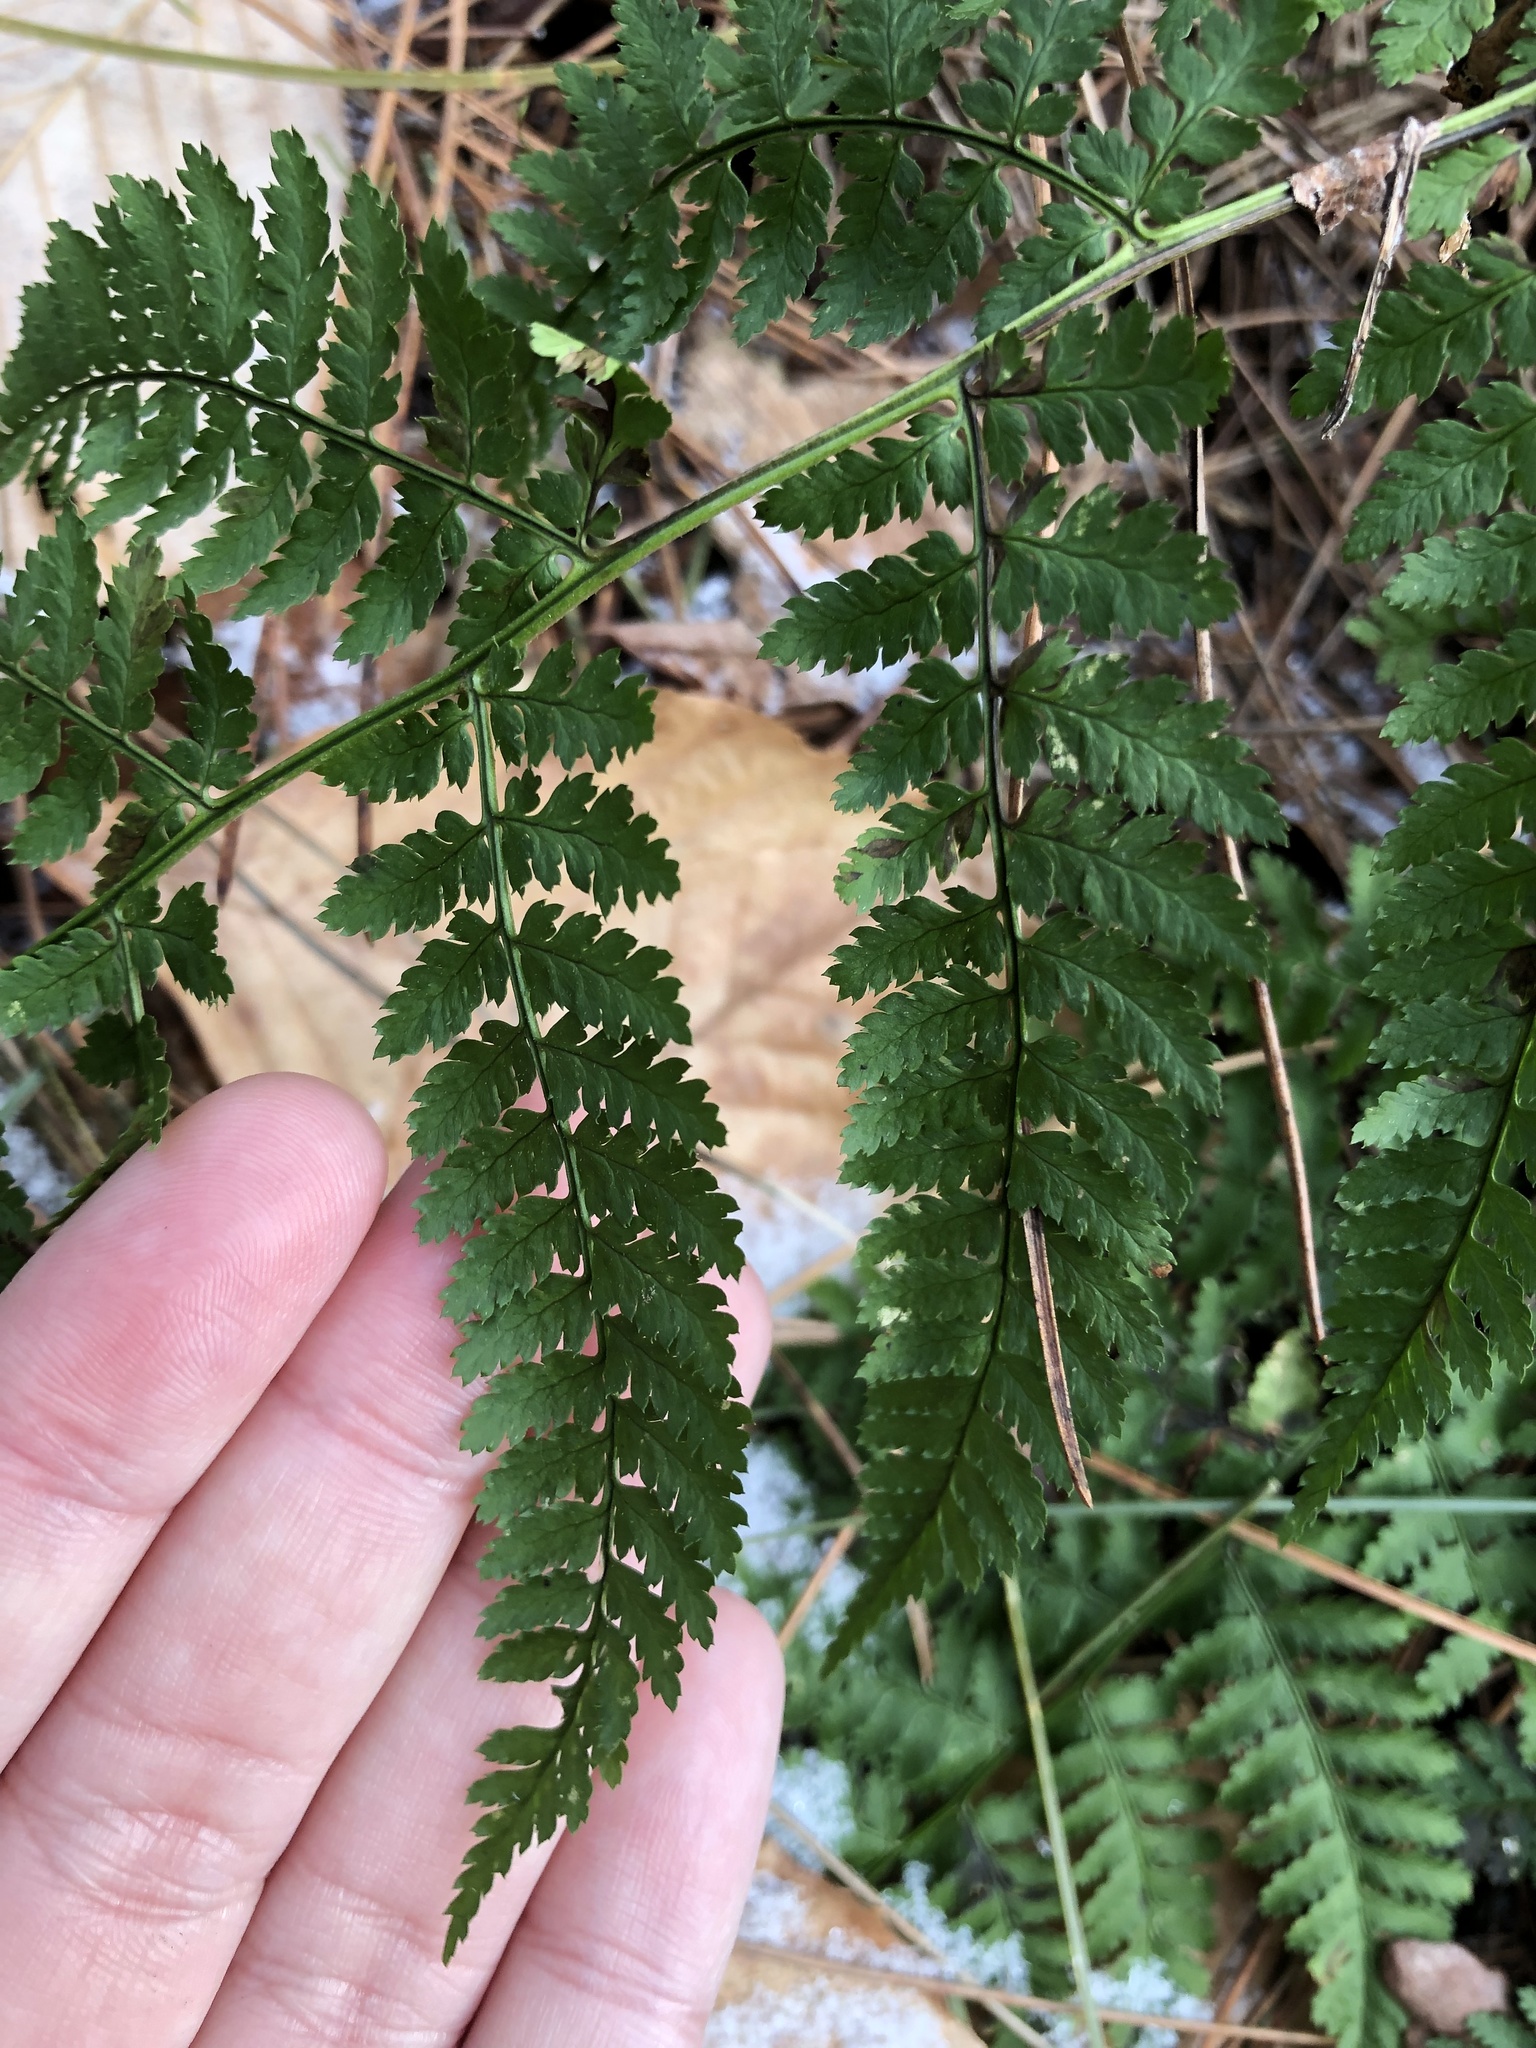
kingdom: Plantae
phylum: Tracheophyta
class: Polypodiopsida
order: Polypodiales
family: Dryopteridaceae
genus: Dryopteris
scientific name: Dryopteris intermedia
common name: Evergreen wood fern
